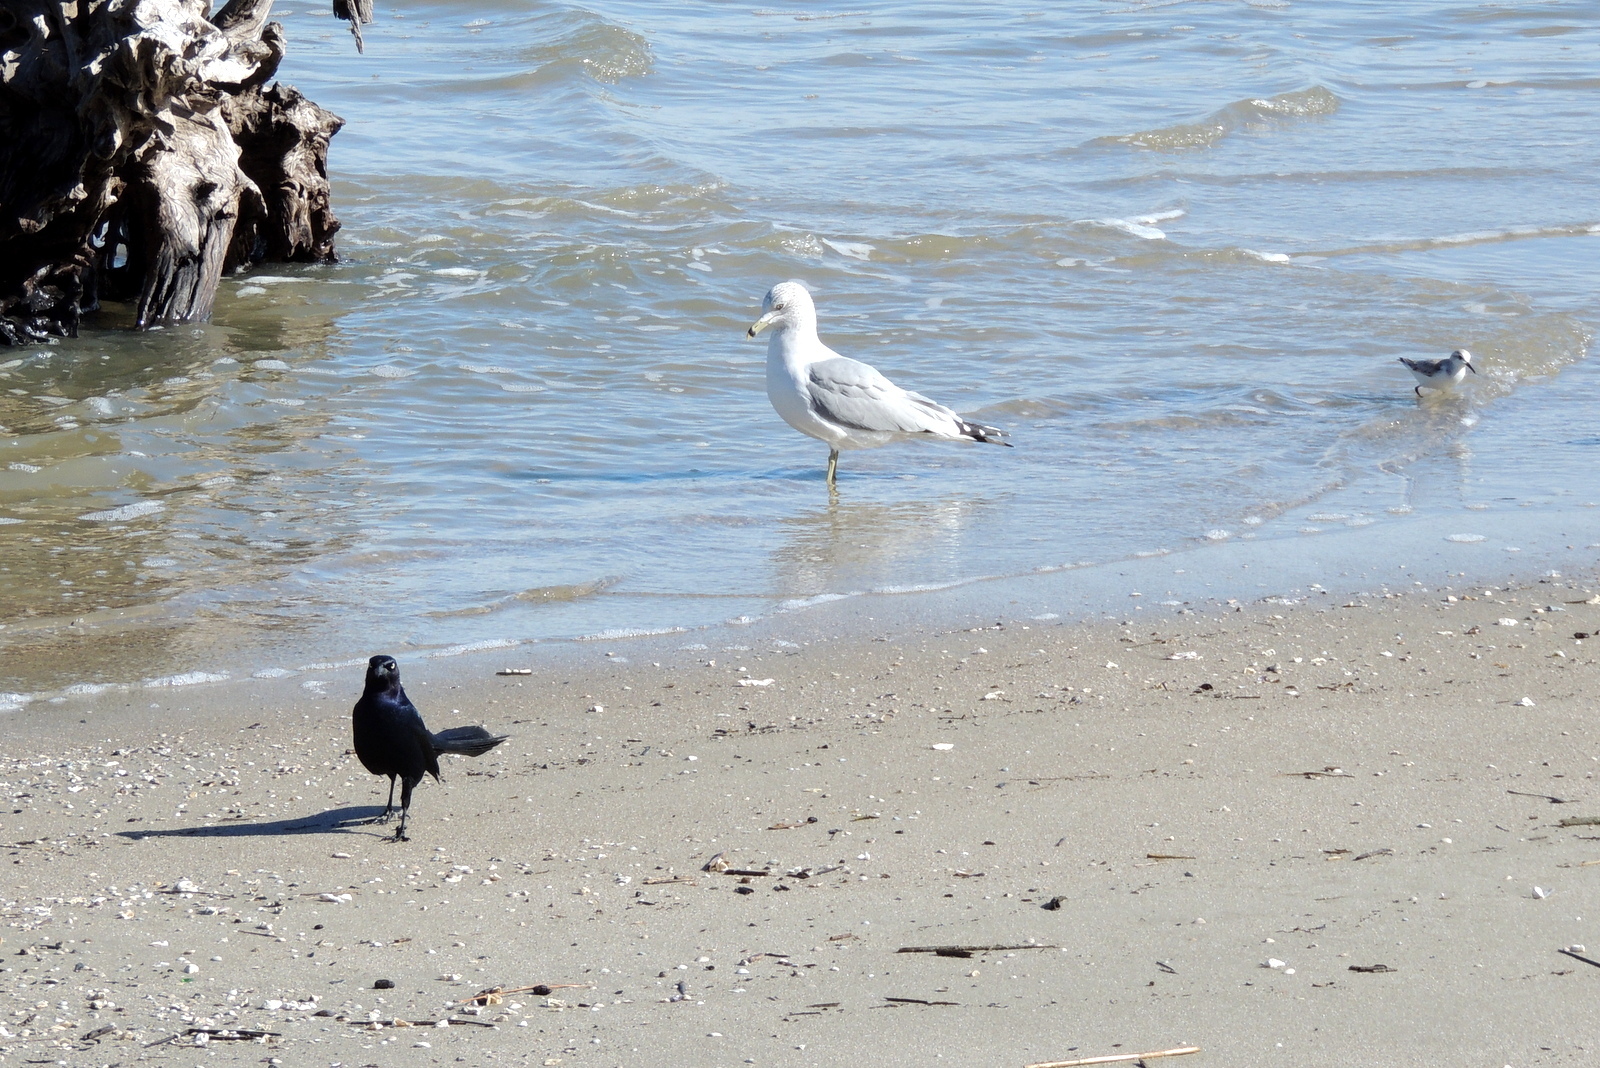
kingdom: Animalia
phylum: Chordata
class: Aves
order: Charadriiformes
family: Scolopacidae
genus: Calidris
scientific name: Calidris alba
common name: Sanderling
